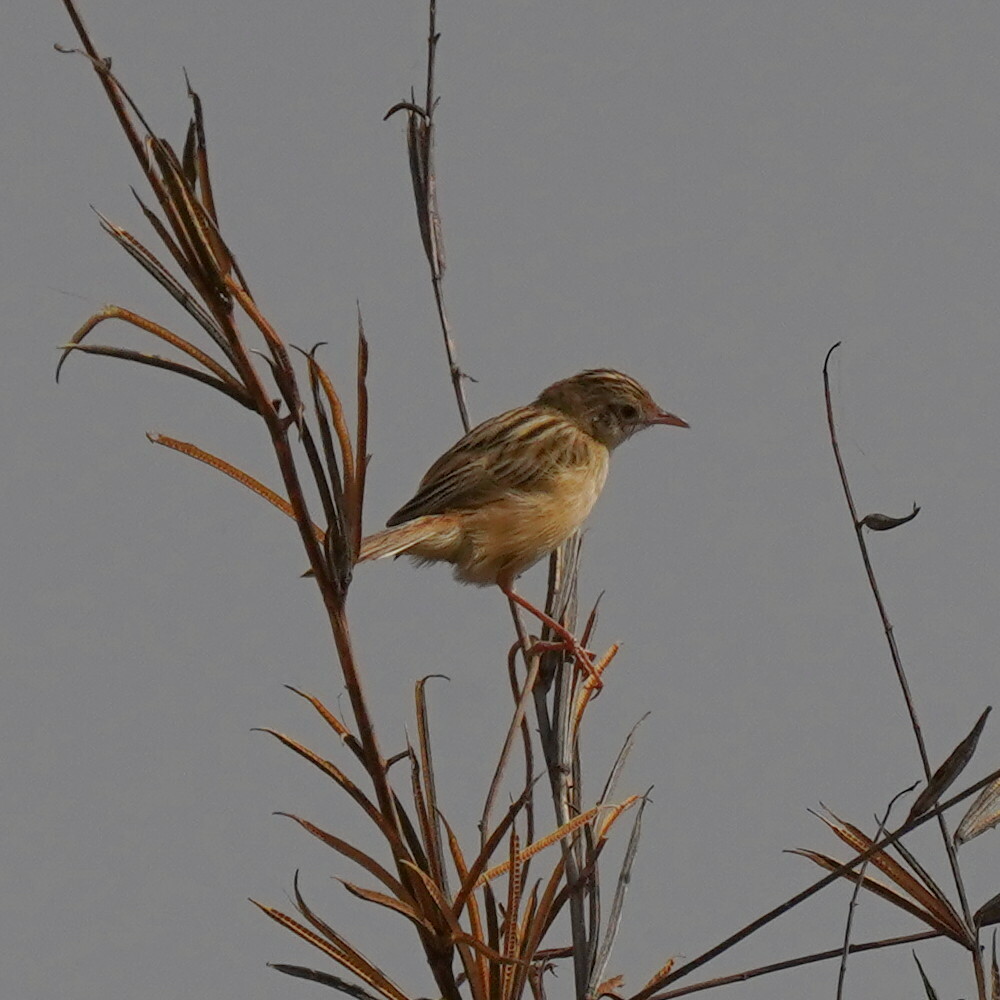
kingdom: Animalia
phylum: Chordata
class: Aves
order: Passeriformes
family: Cisticolidae
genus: Cisticola
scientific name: Cisticola juncidis
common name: Zitting cisticola
